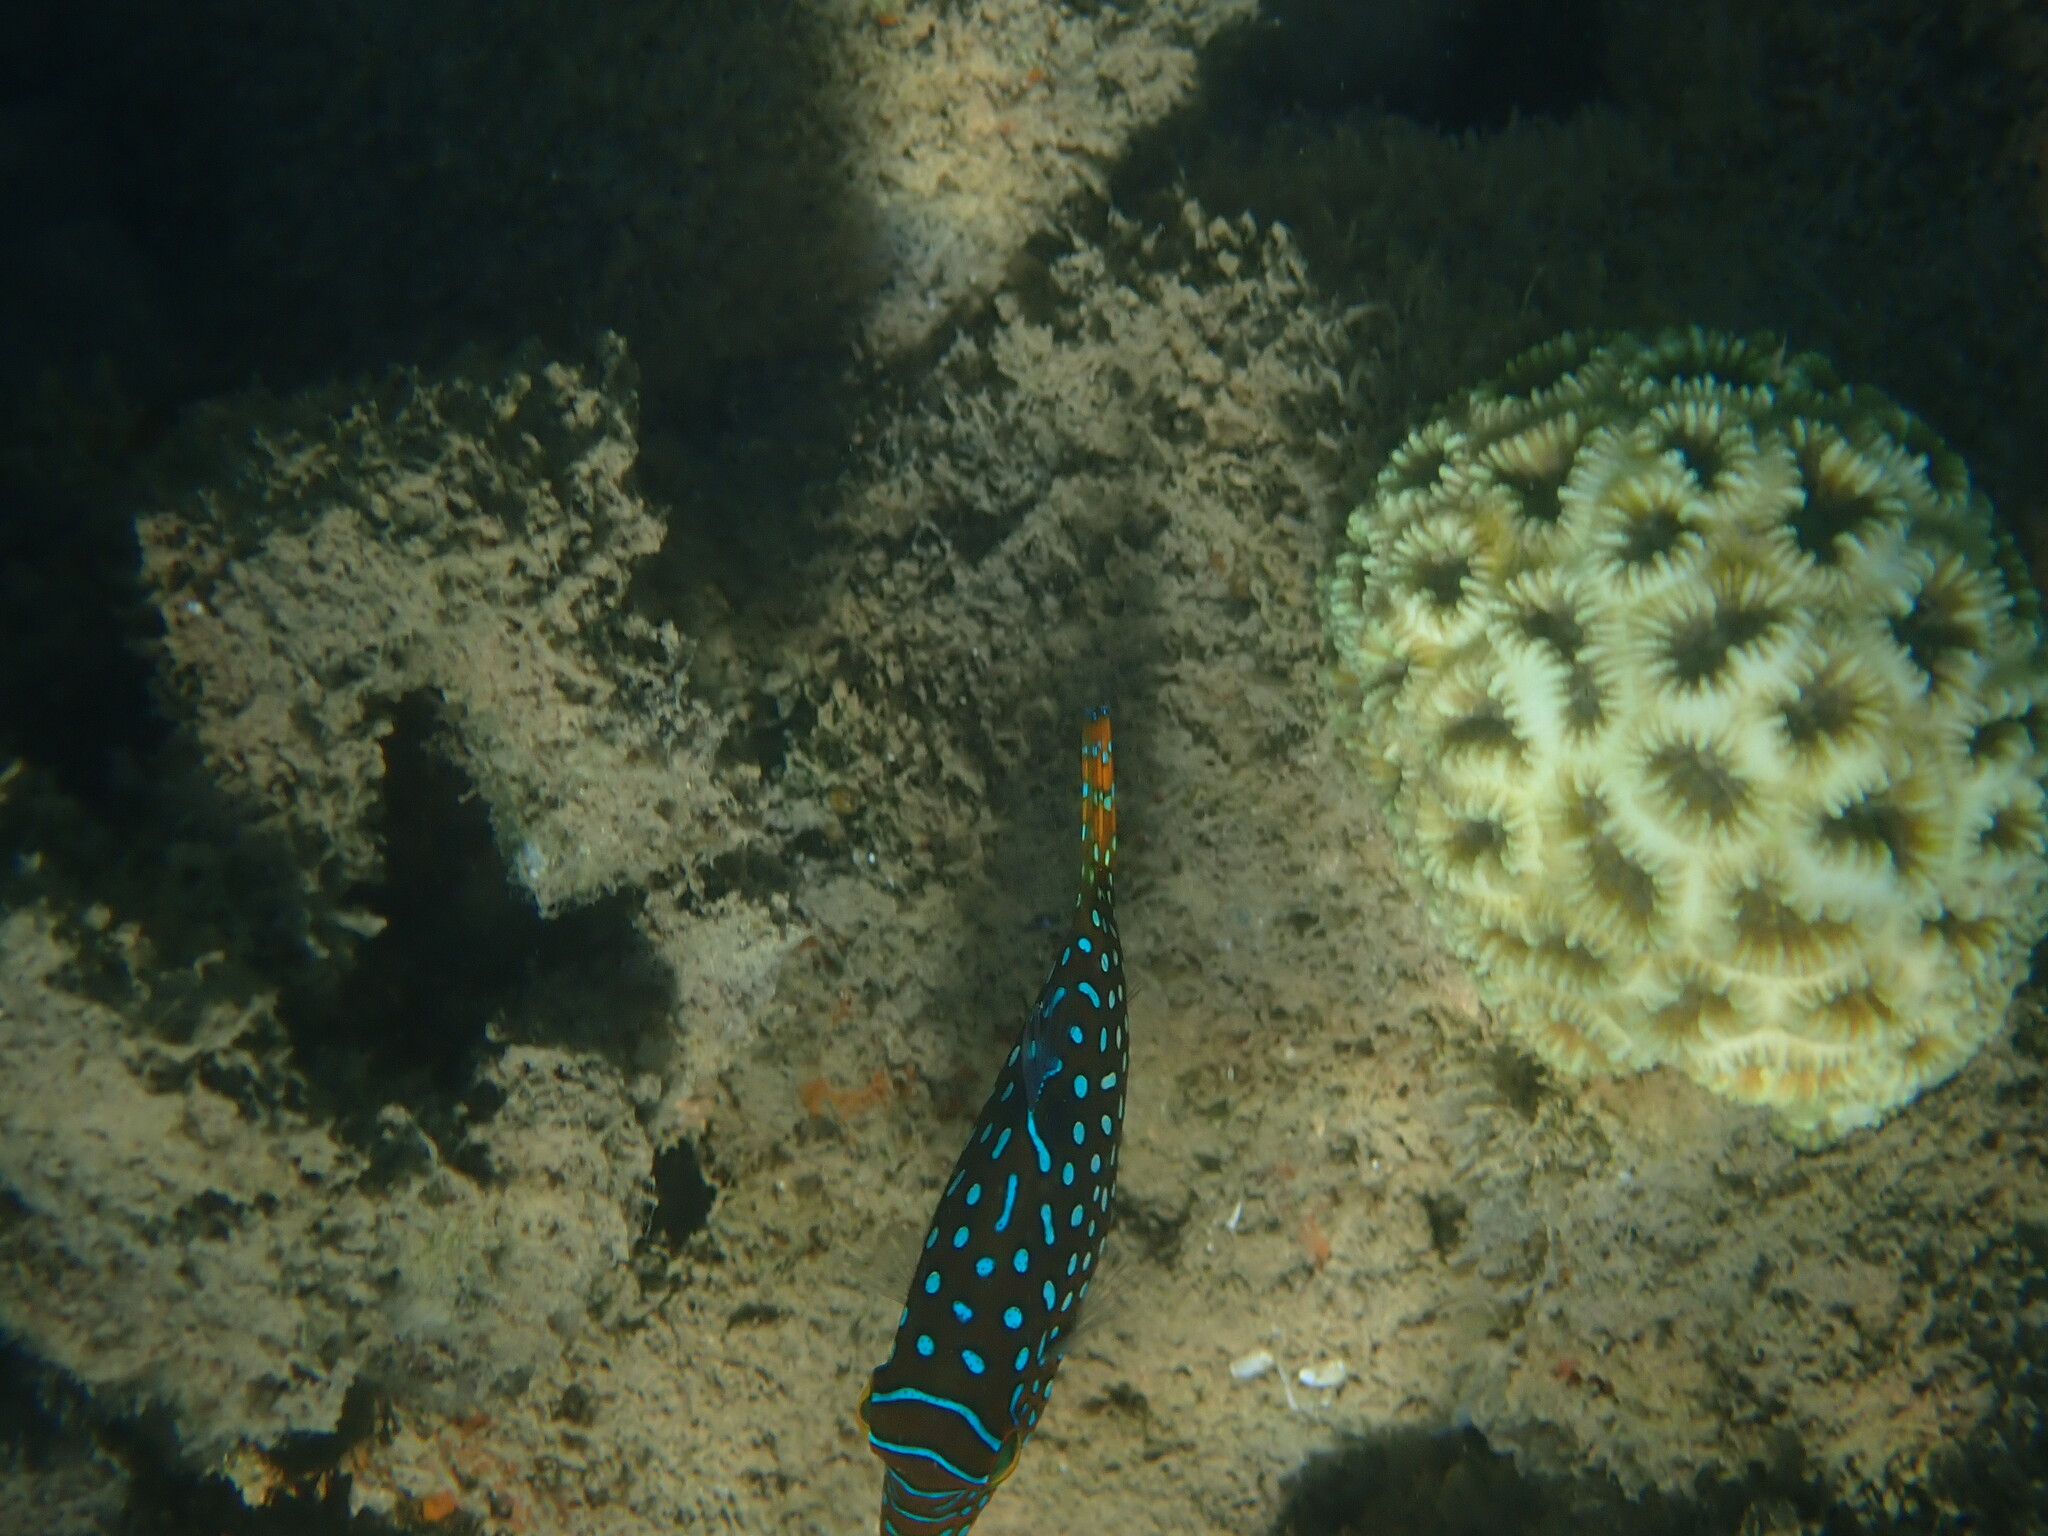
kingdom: Animalia
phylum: Chordata
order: Tetraodontiformes
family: Tetraodontidae
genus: Canthigaster
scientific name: Canthigaster solandri
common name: False-eye toby
